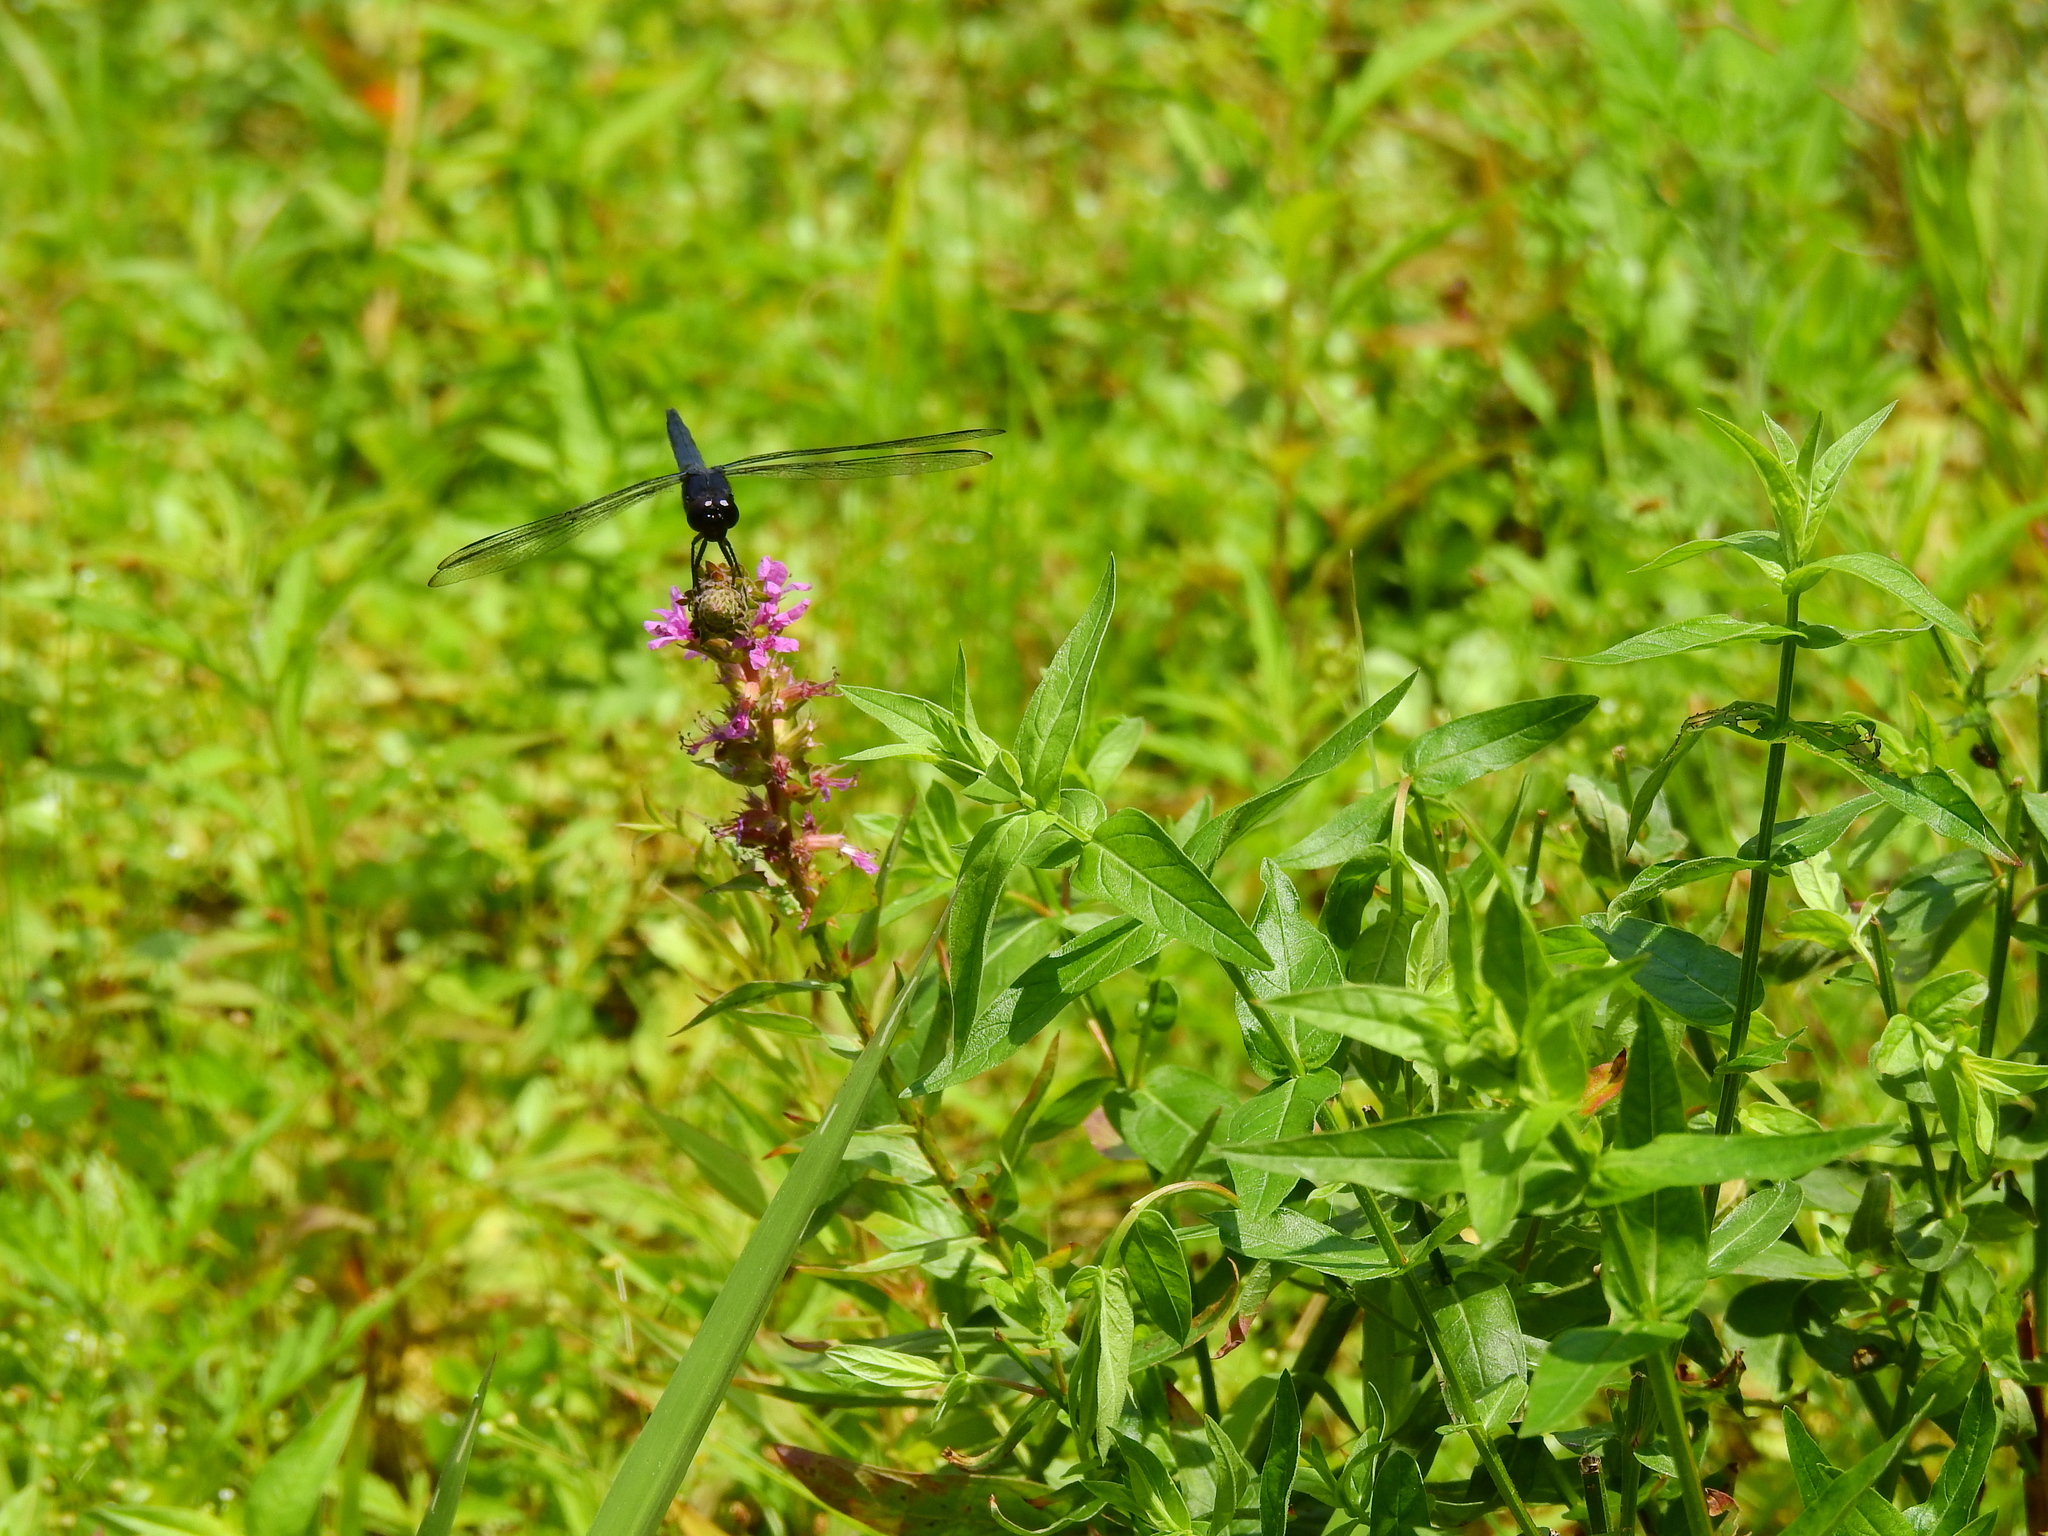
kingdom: Animalia
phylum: Arthropoda
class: Insecta
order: Odonata
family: Libellulidae
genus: Libellula
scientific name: Libellula incesta
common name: Slaty skimmer
